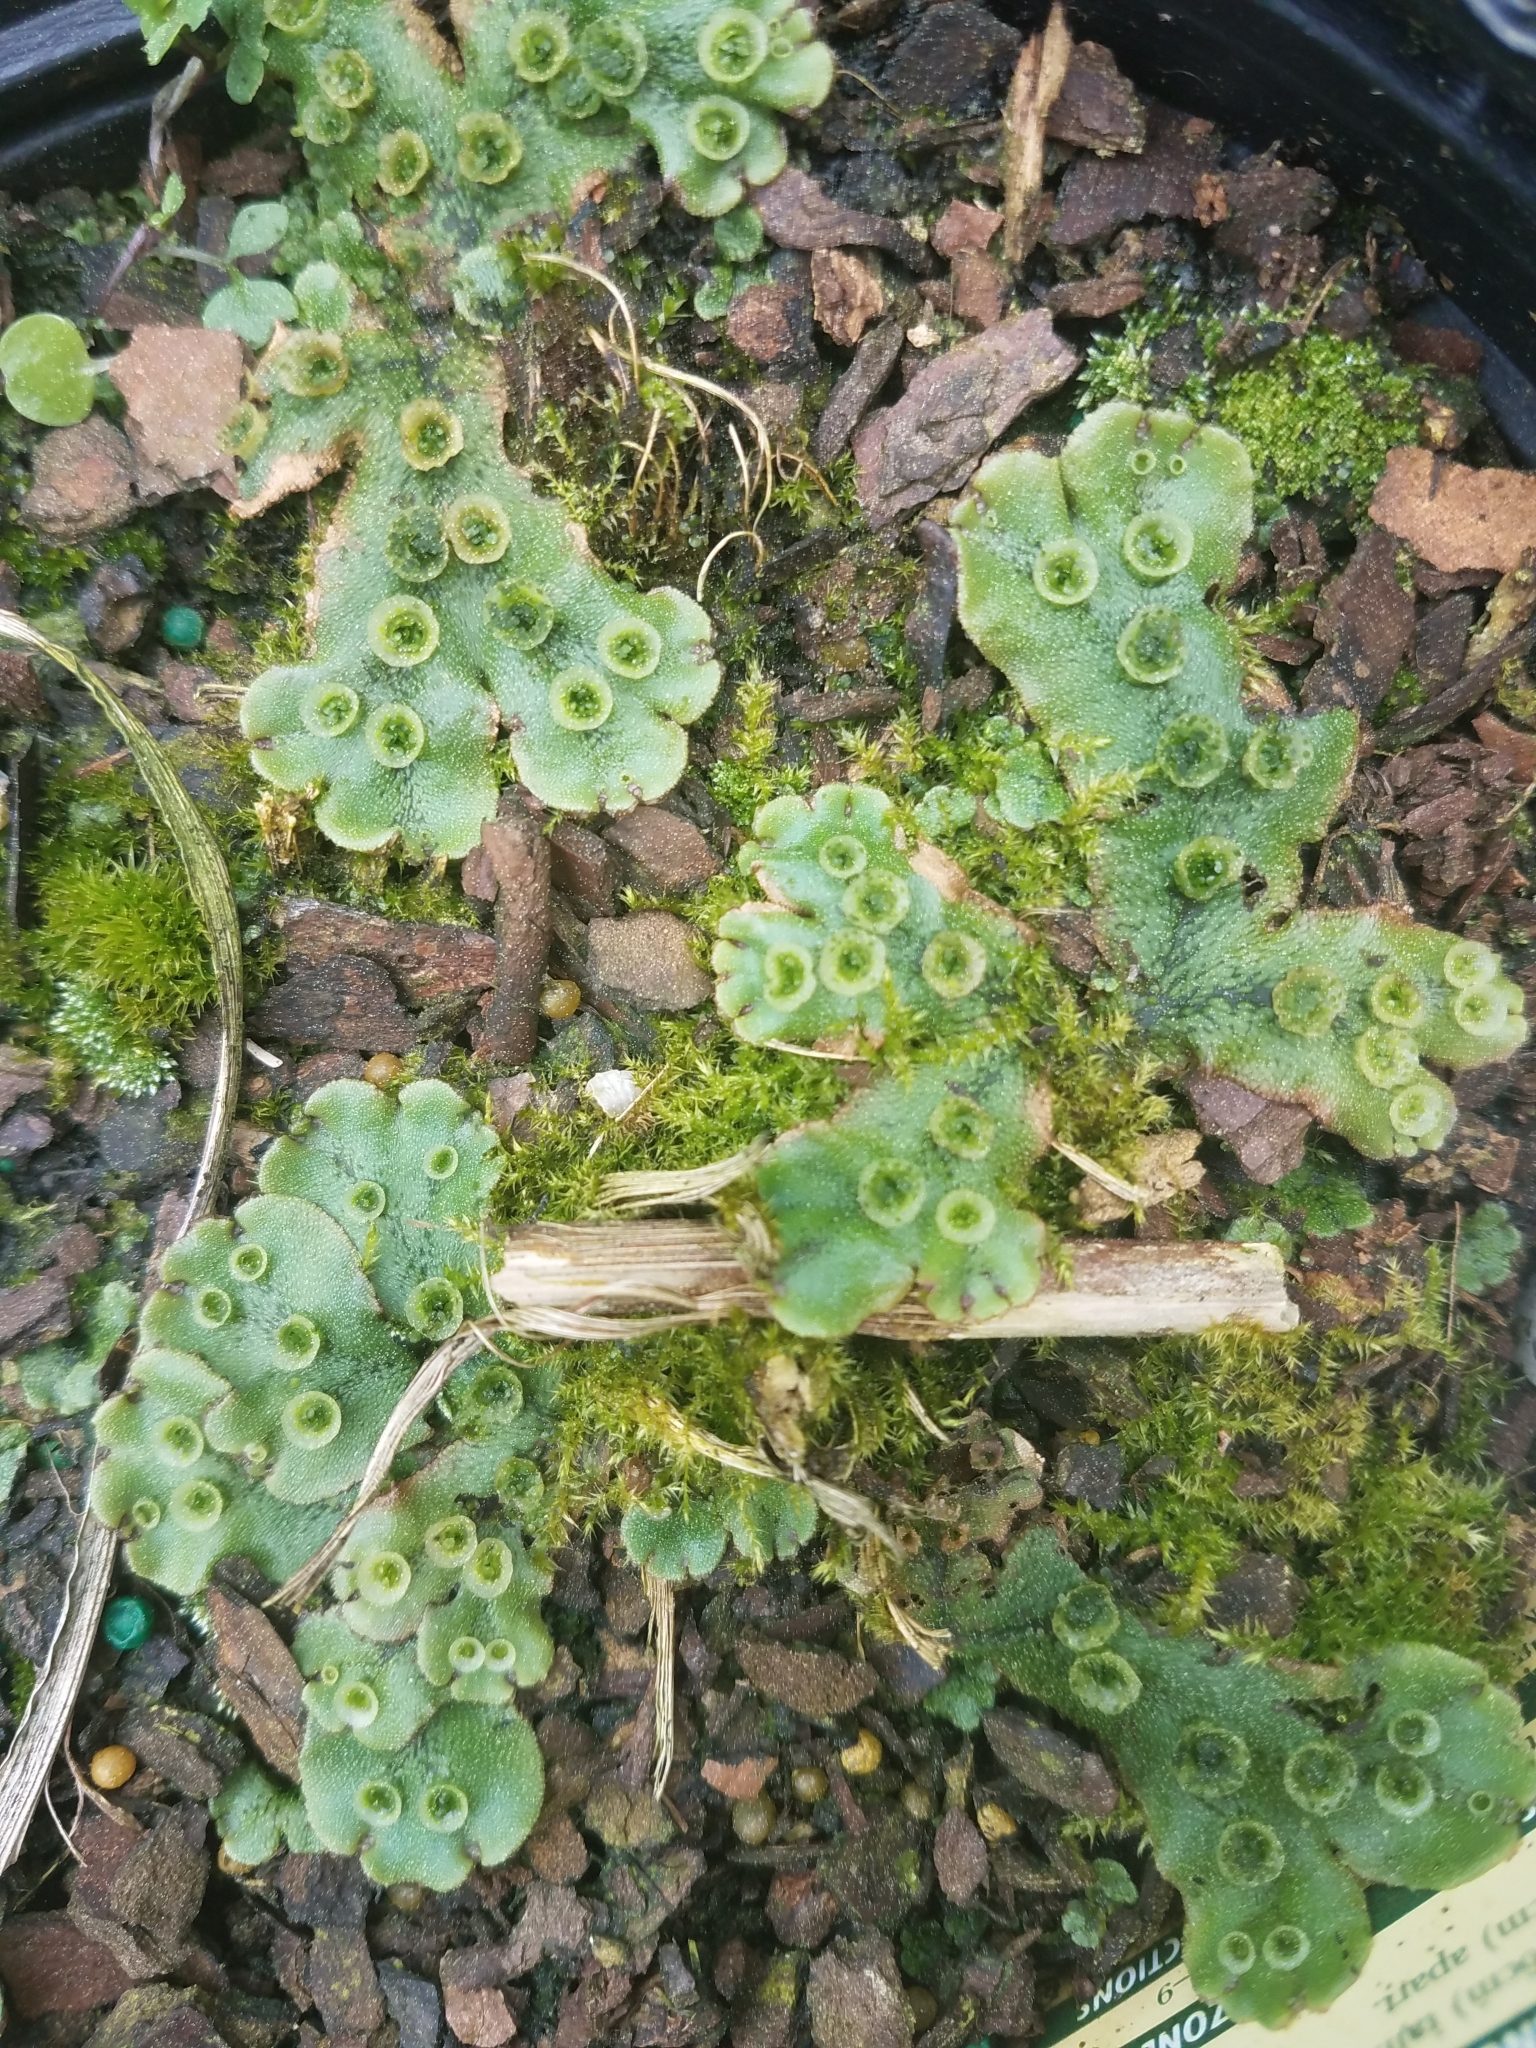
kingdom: Plantae
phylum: Marchantiophyta
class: Marchantiopsida
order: Marchantiales
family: Marchantiaceae
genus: Marchantia
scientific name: Marchantia polymorpha
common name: Common liverwort
